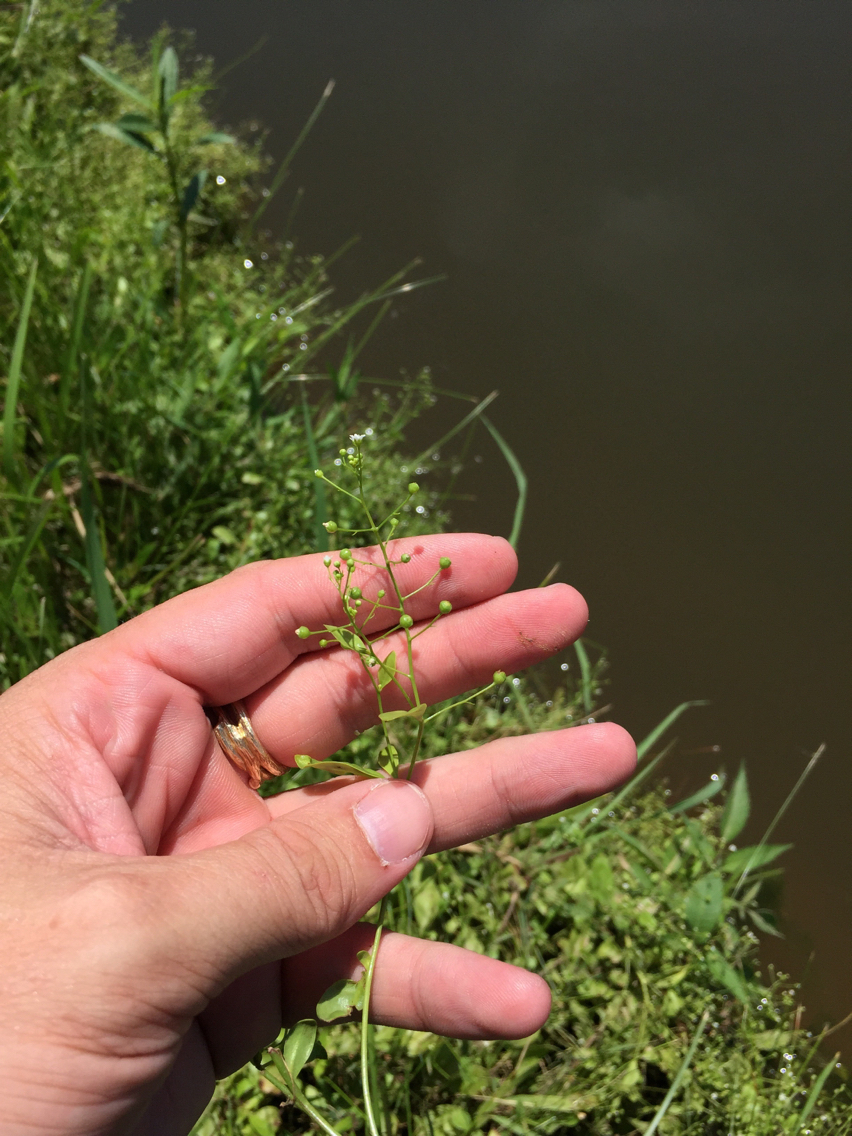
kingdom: Plantae
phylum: Tracheophyta
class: Magnoliopsida
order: Ericales
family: Primulaceae
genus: Samolus
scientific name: Samolus parviflorus
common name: False water pimpernel
